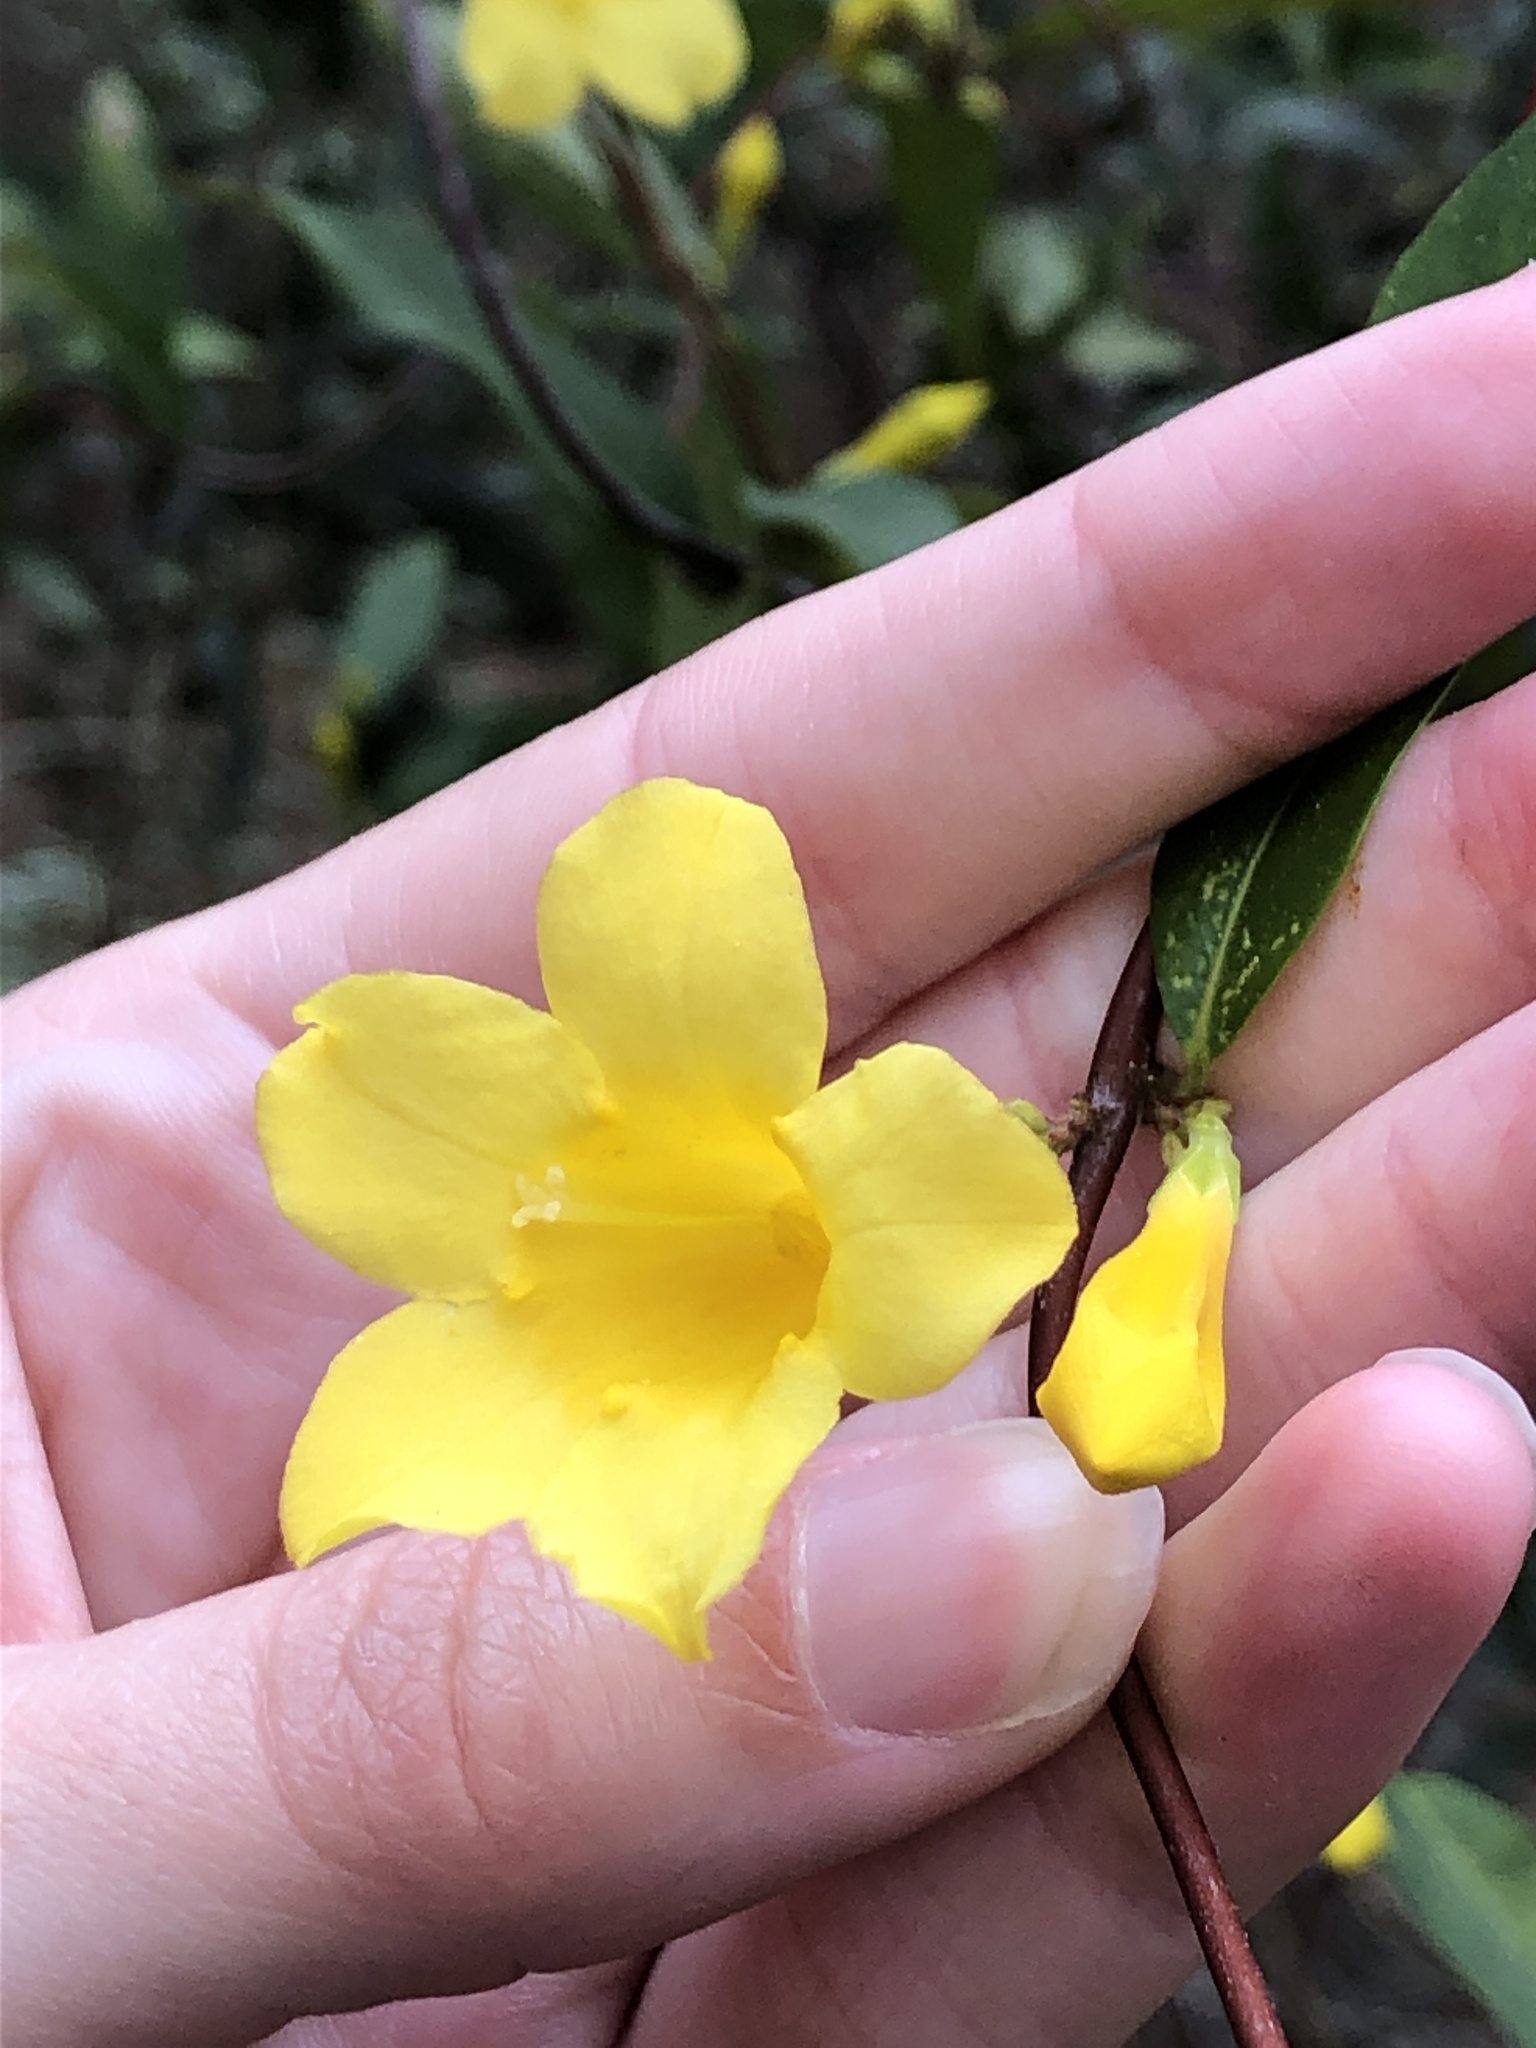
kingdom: Plantae
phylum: Tracheophyta
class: Magnoliopsida
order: Gentianales
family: Gelsemiaceae
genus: Gelsemium
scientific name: Gelsemium sempervirens
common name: Carolina-jasmine
